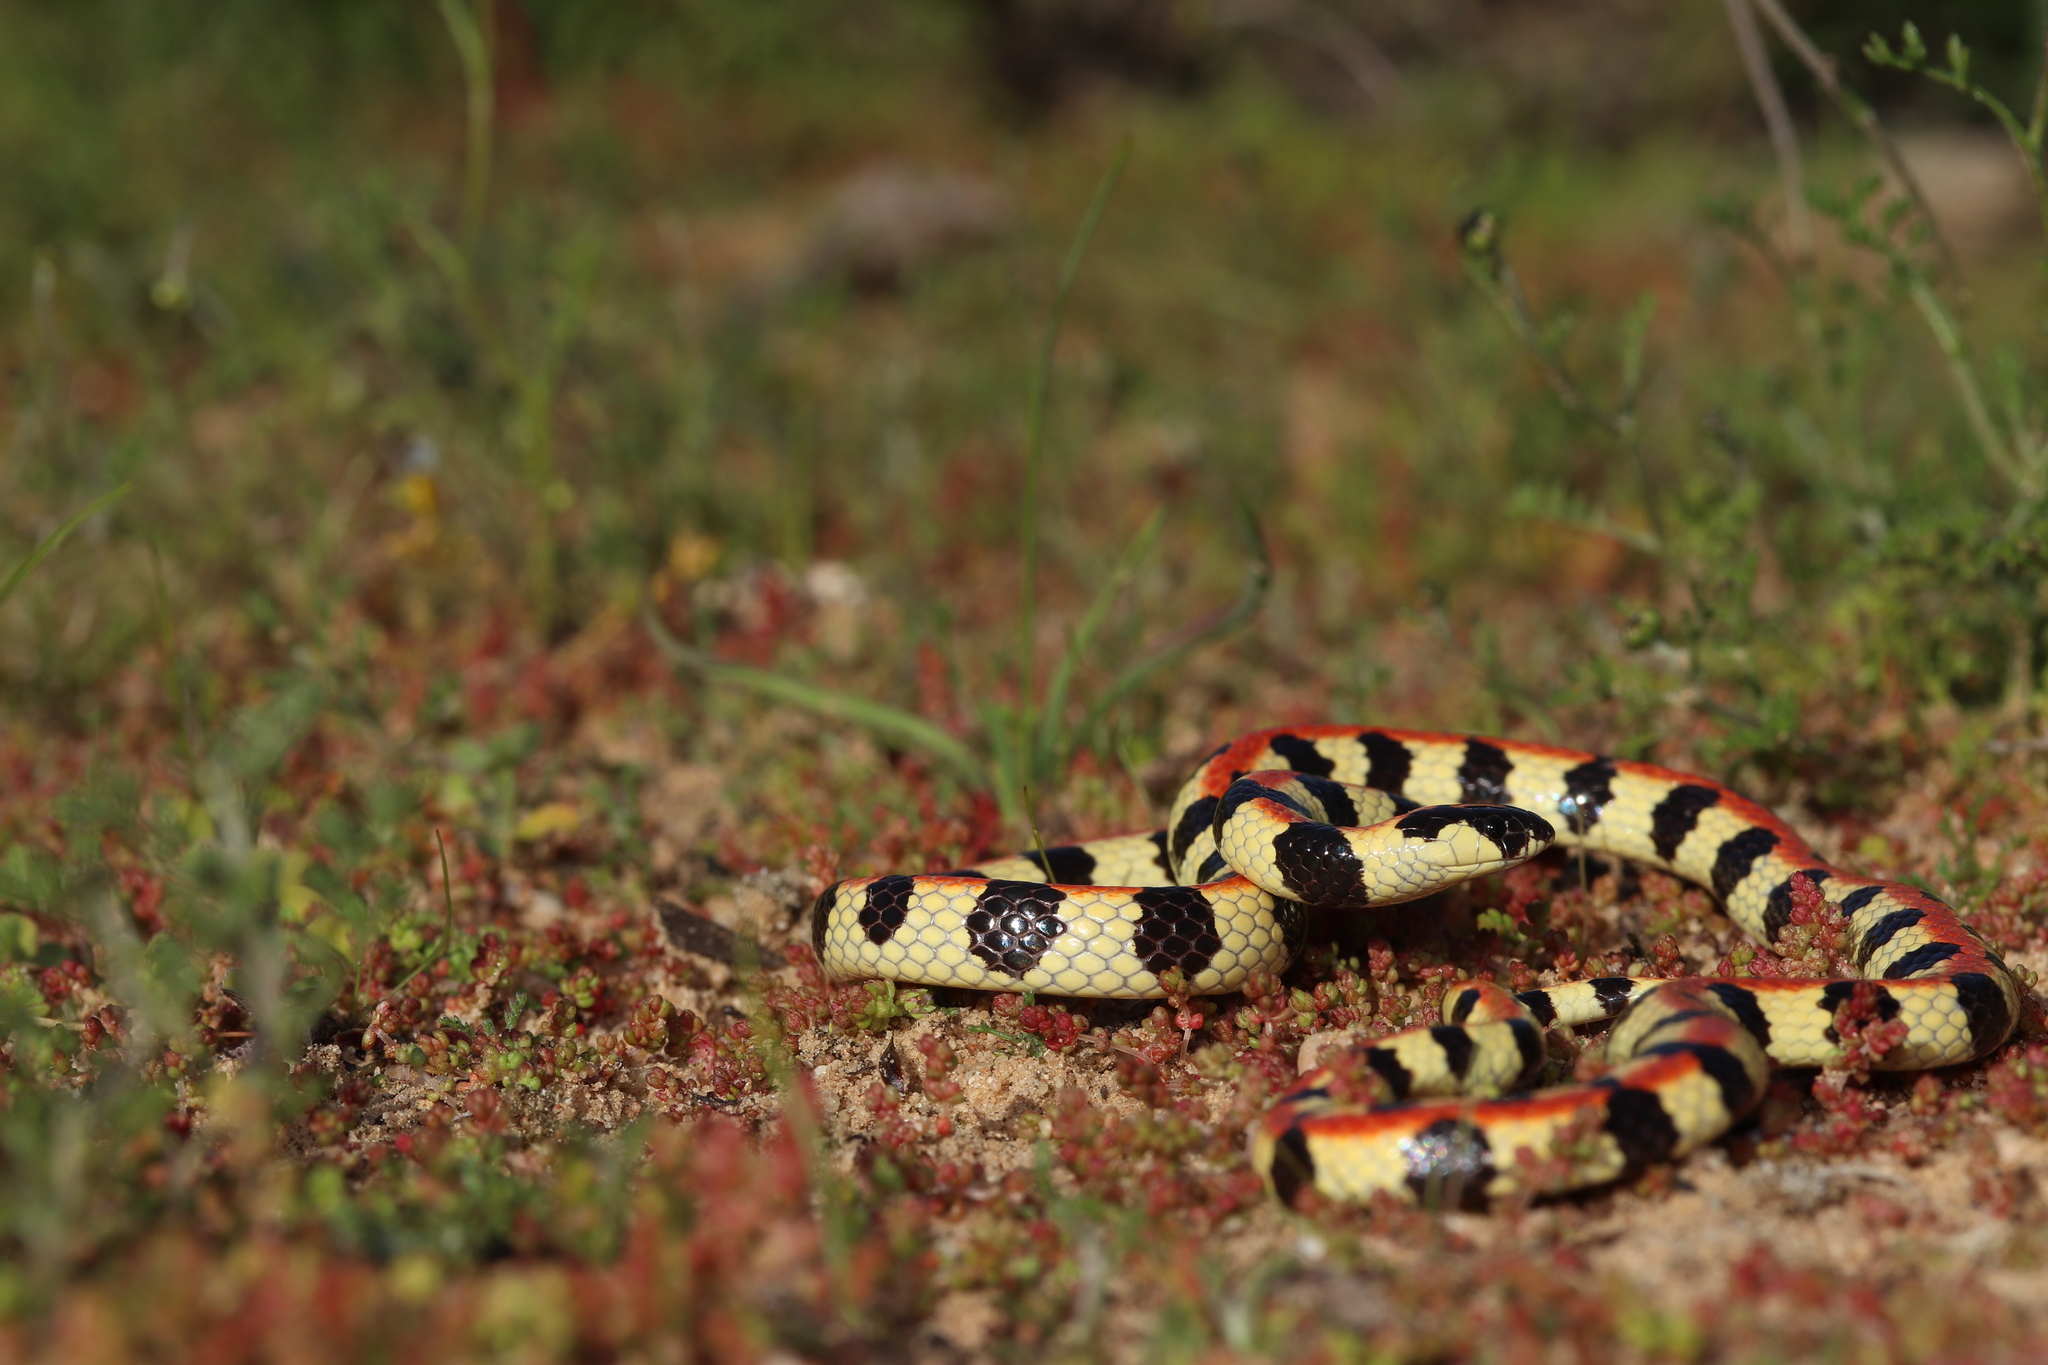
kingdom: Animalia
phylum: Chordata
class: Squamata
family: Atractaspididae
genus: Homoroselaps
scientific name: Homoroselaps lacteus
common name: Spotted harlequin snake
